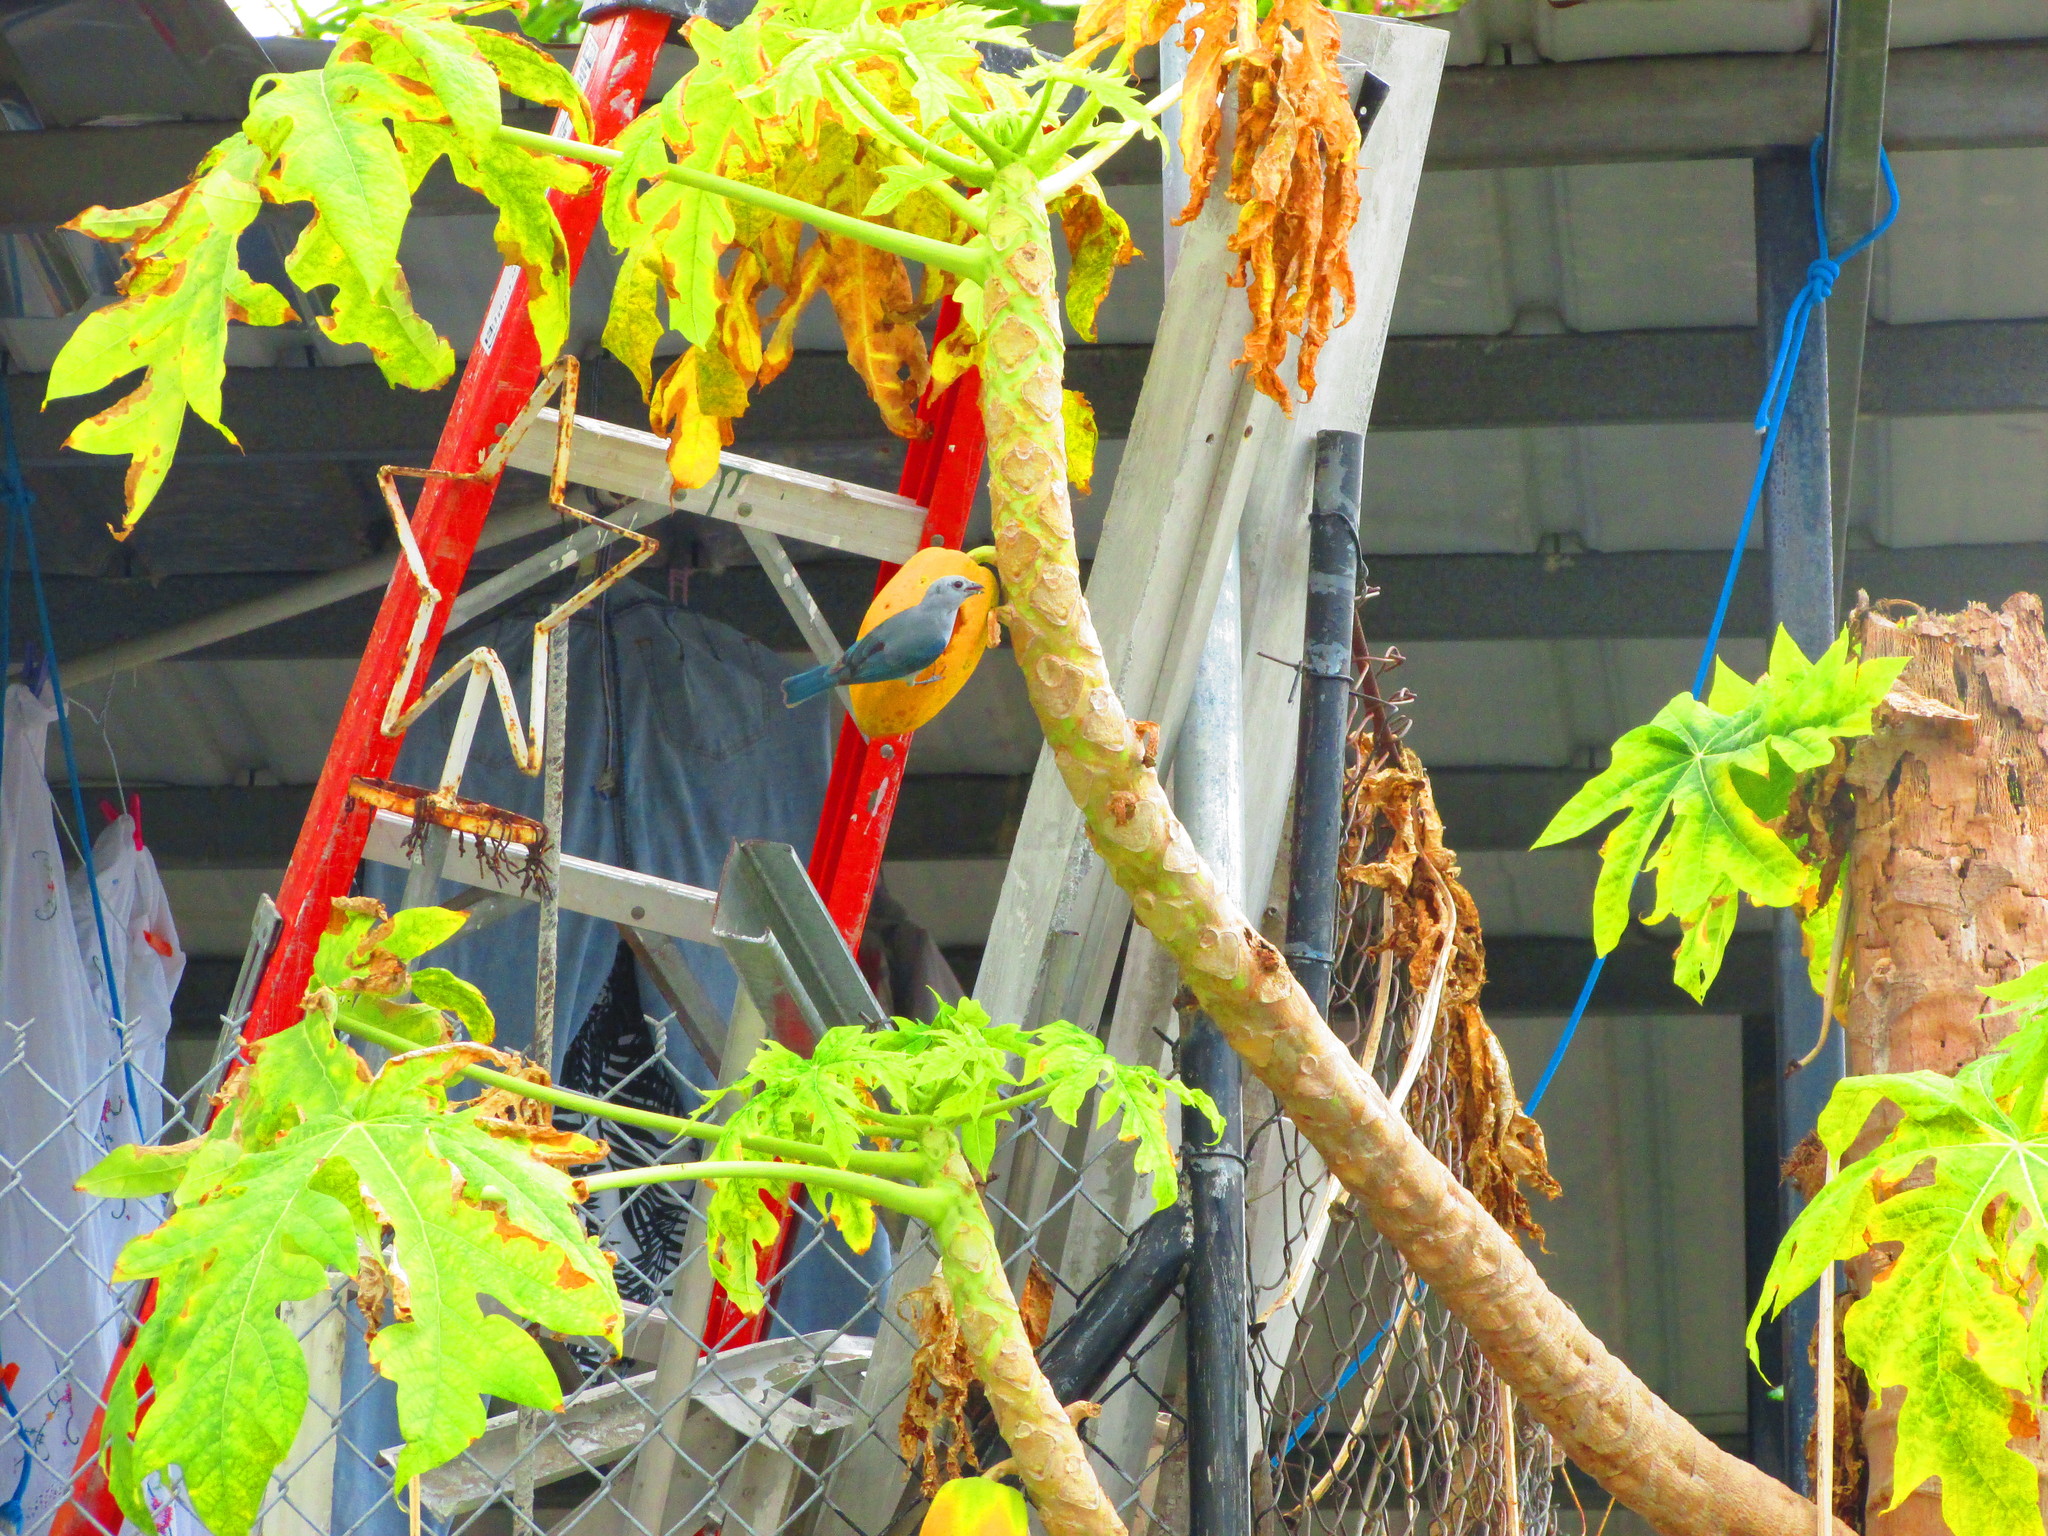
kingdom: Animalia
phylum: Chordata
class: Aves
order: Passeriformes
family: Thraupidae
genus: Thraupis
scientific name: Thraupis episcopus
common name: Blue-grey tanager
